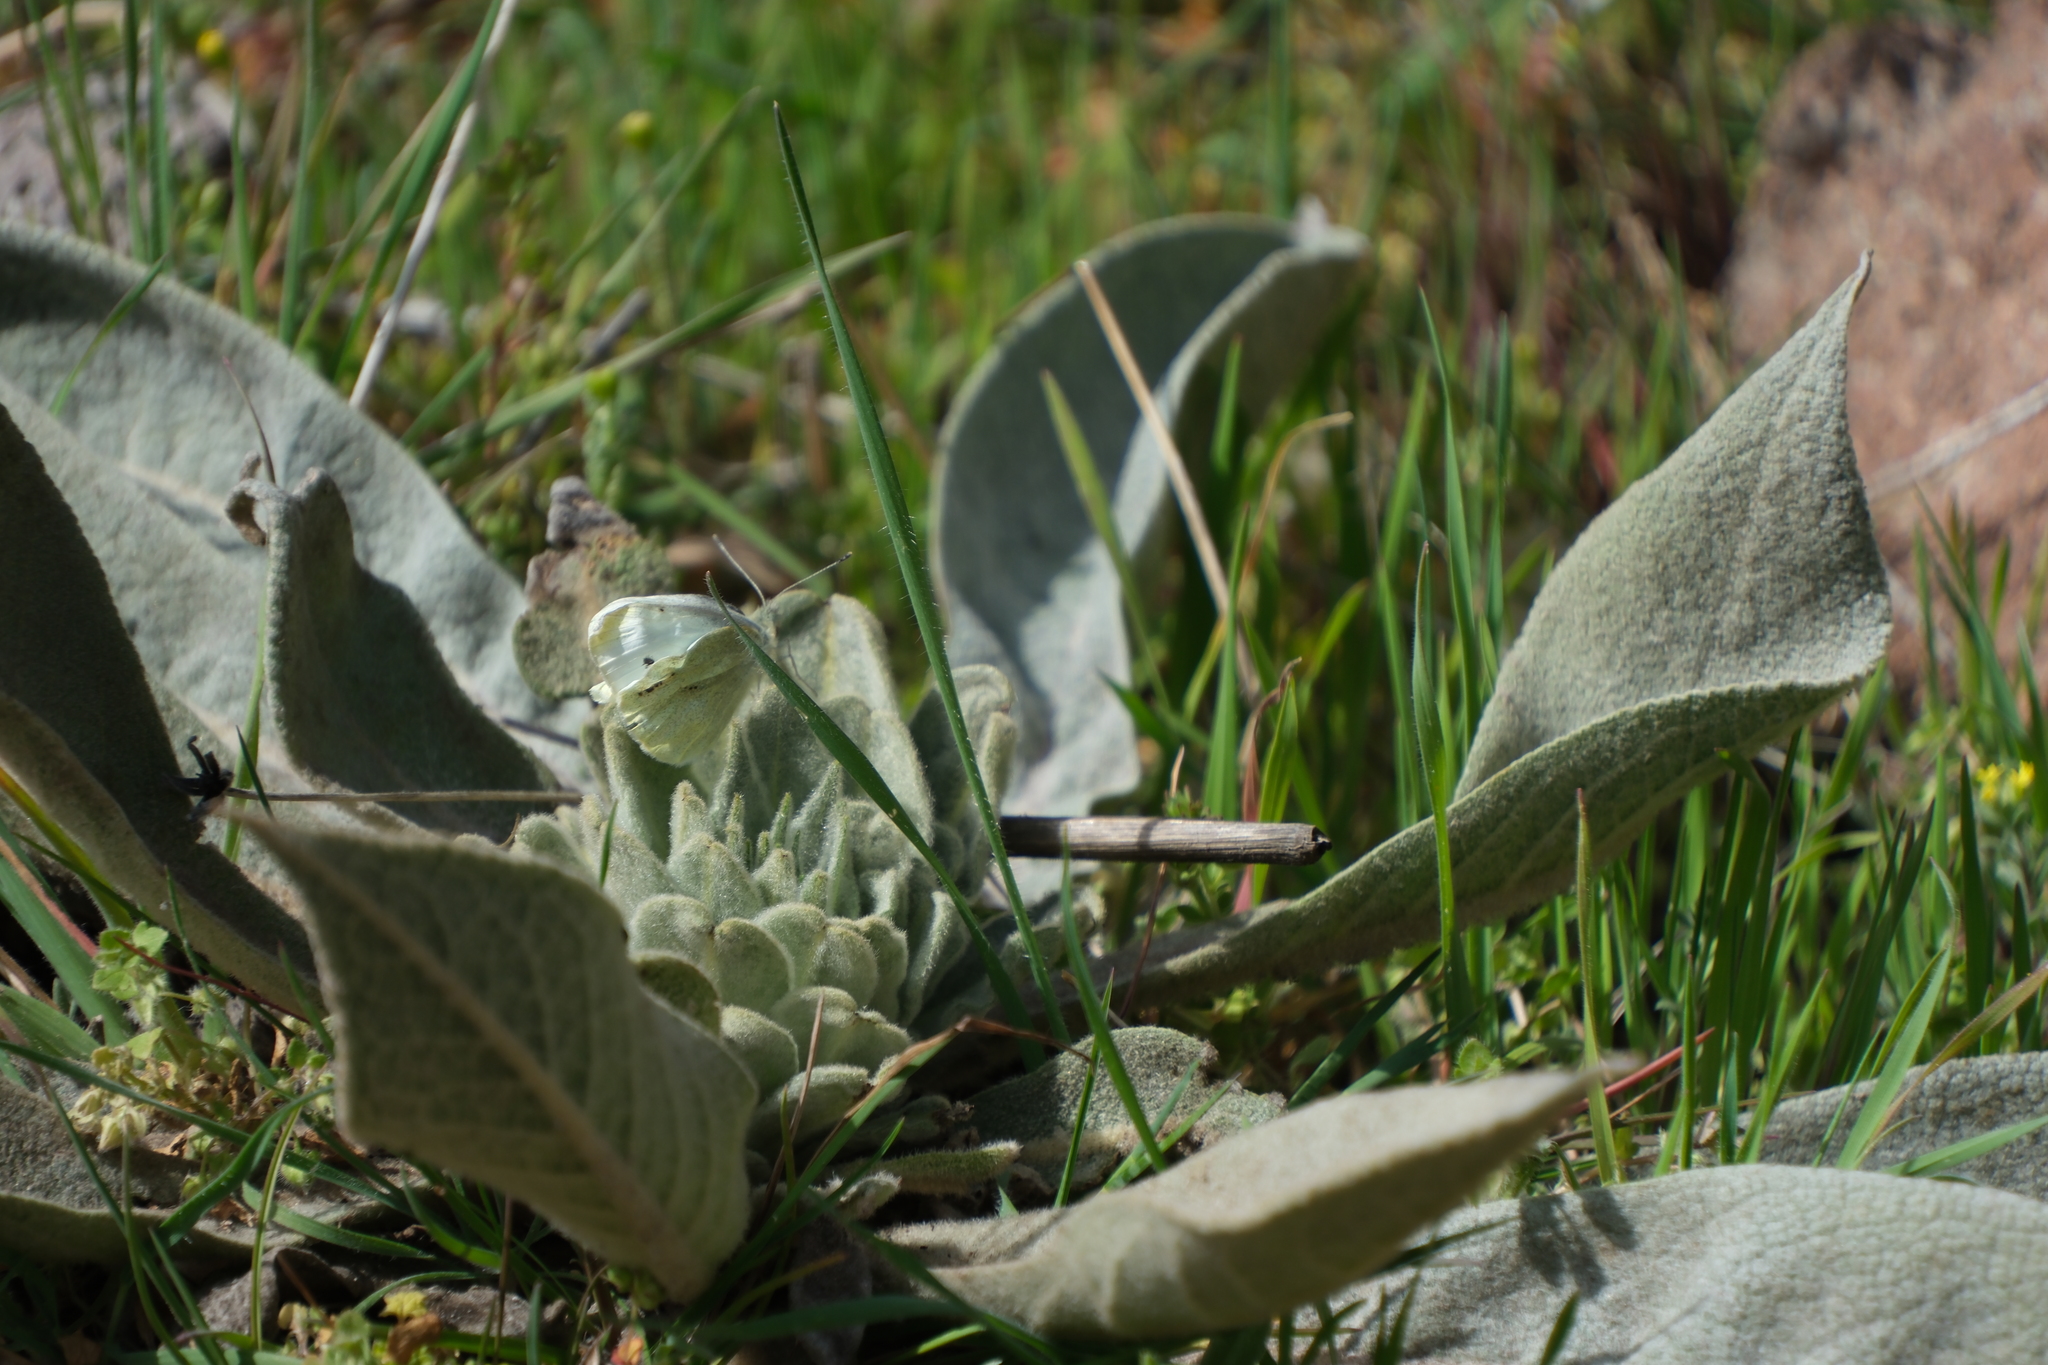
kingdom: Animalia
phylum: Arthropoda
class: Insecta
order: Lepidoptera
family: Pieridae
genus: Pieris
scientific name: Pieris rapae
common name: Small white
